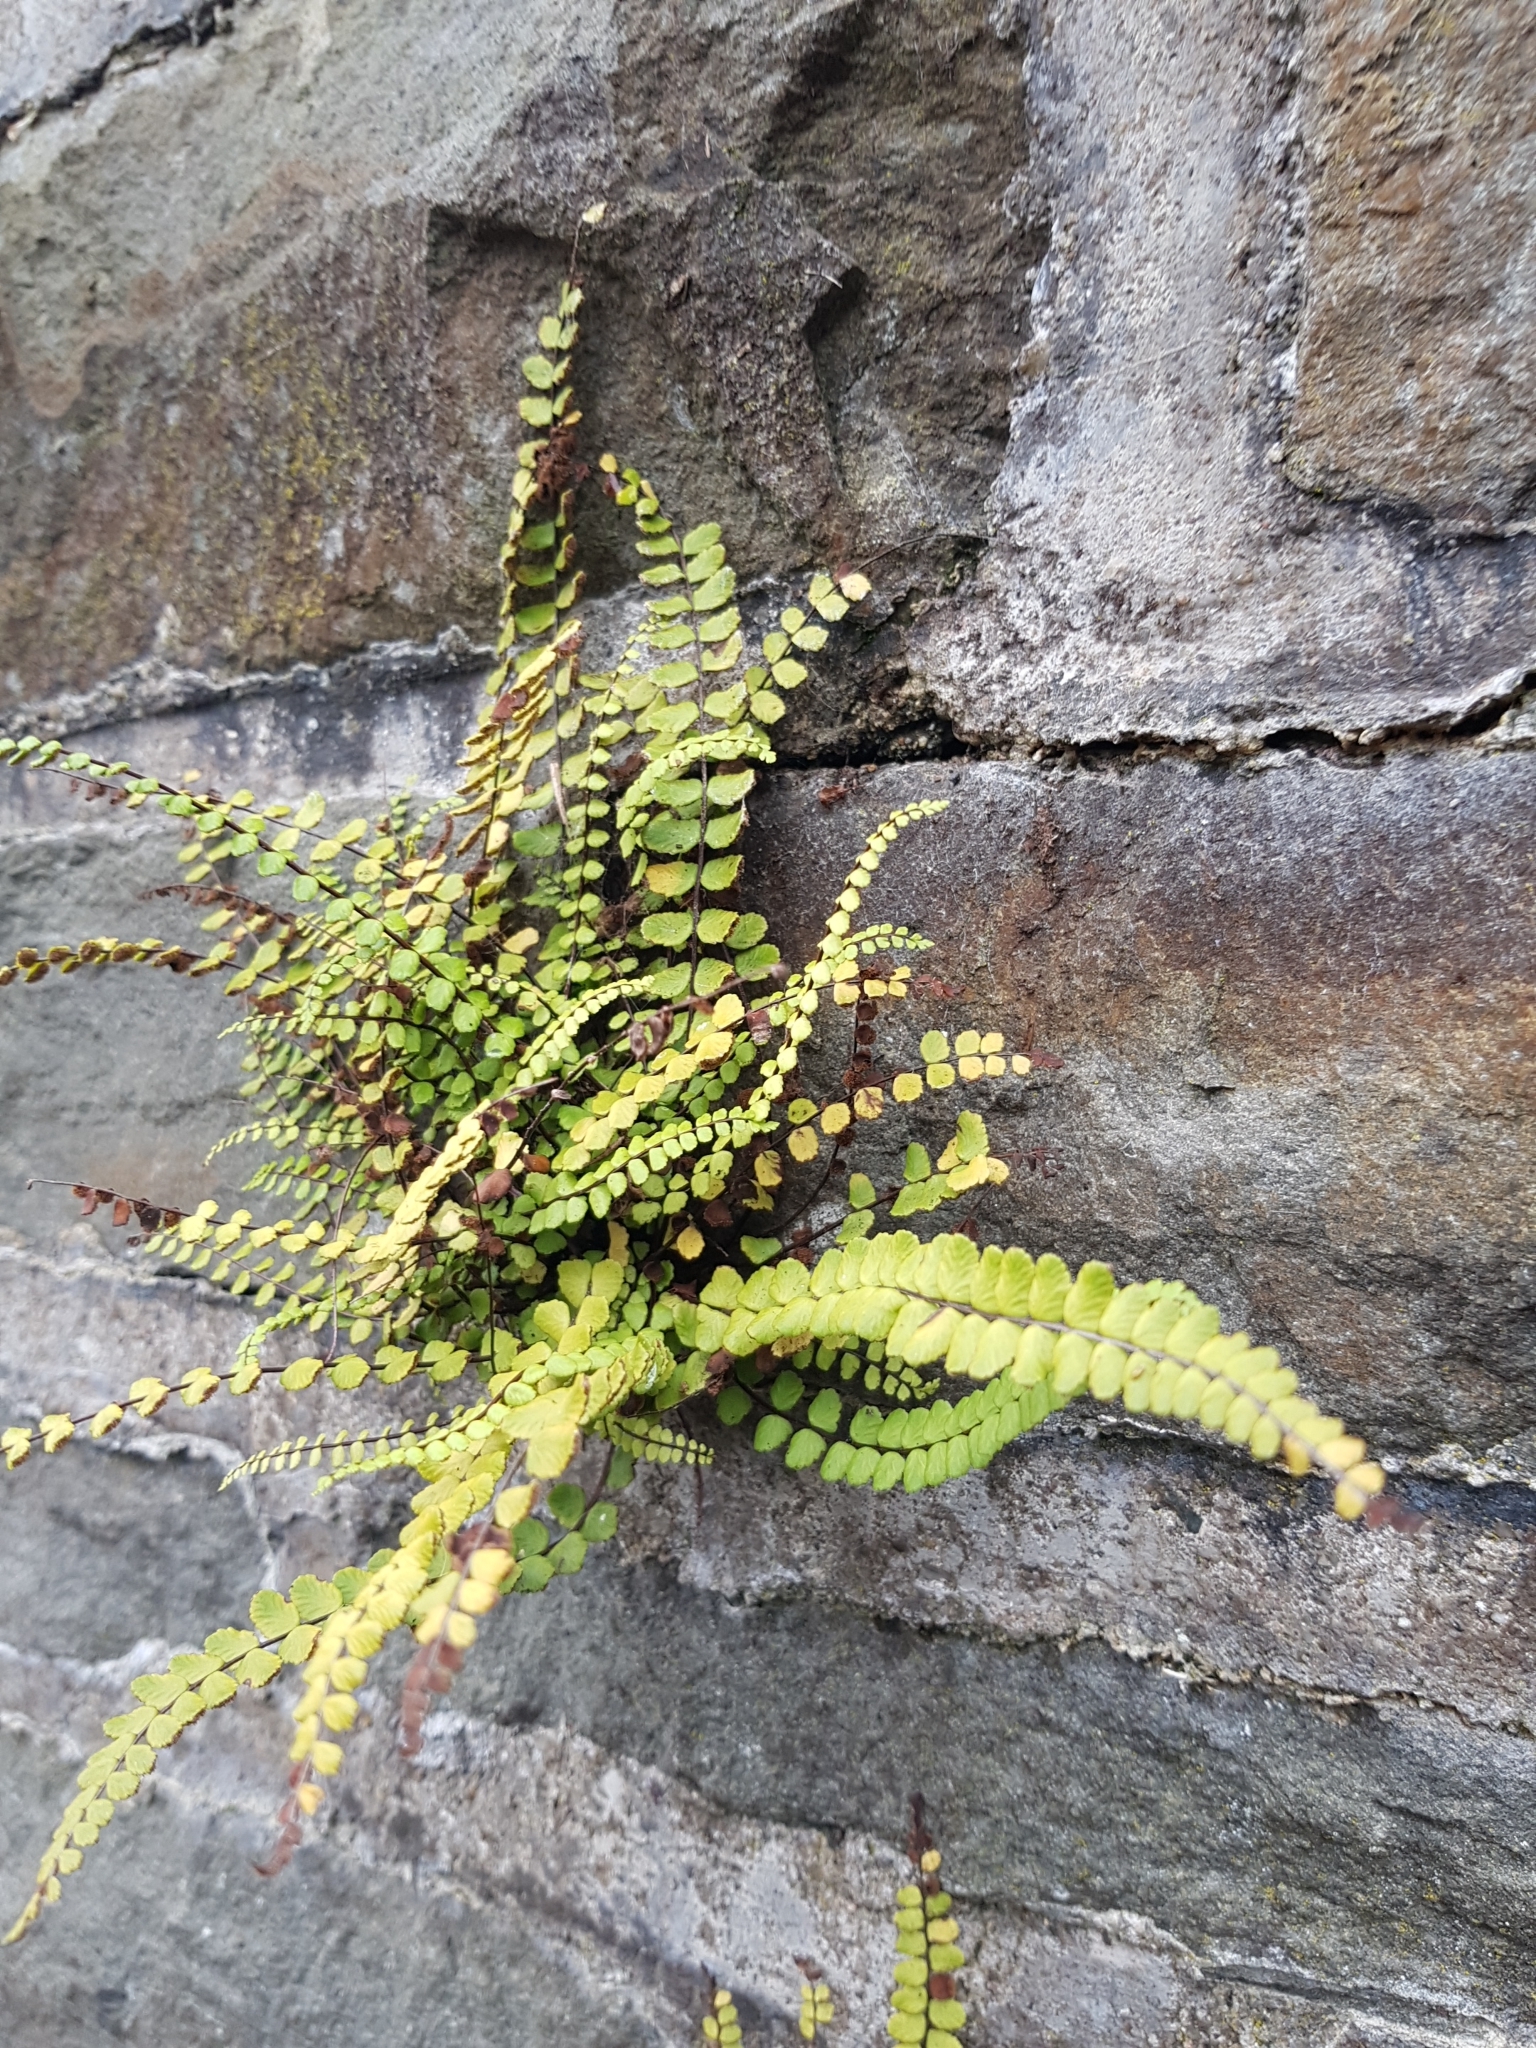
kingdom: Plantae
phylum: Tracheophyta
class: Polypodiopsida
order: Polypodiales
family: Aspleniaceae
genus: Asplenium
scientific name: Asplenium trichomanes
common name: Maidenhair spleenwort
